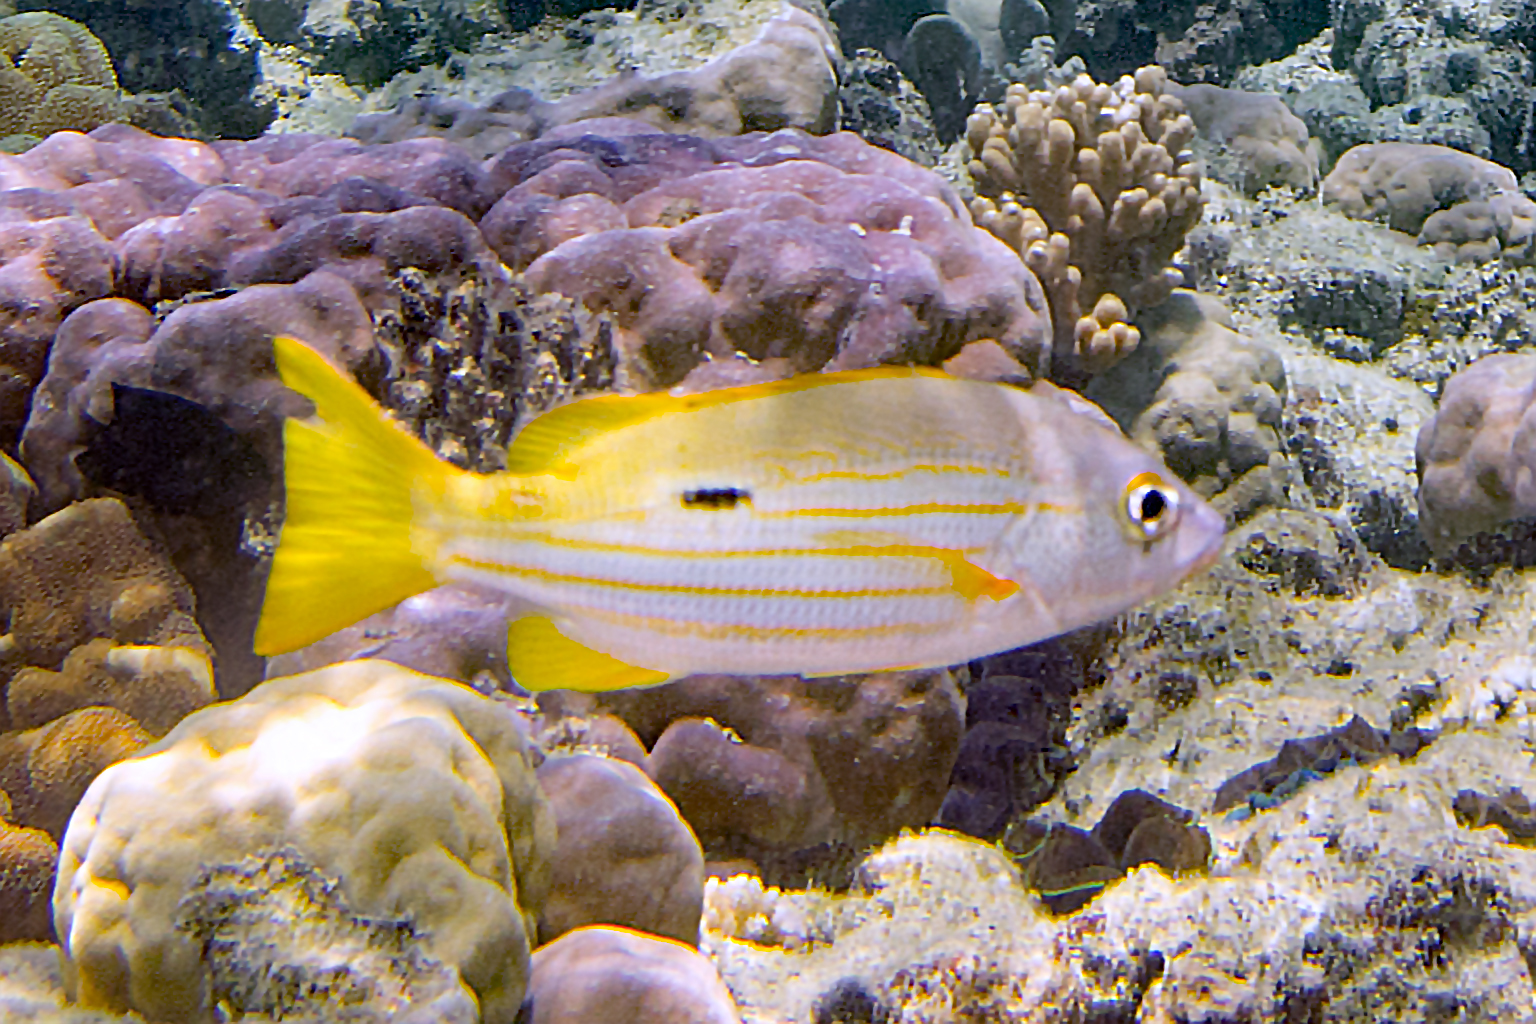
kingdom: Animalia
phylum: Chordata
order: Perciformes
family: Lutjanidae
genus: Lutjanus
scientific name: Lutjanus fulviflamma
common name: Blackspot snapper
